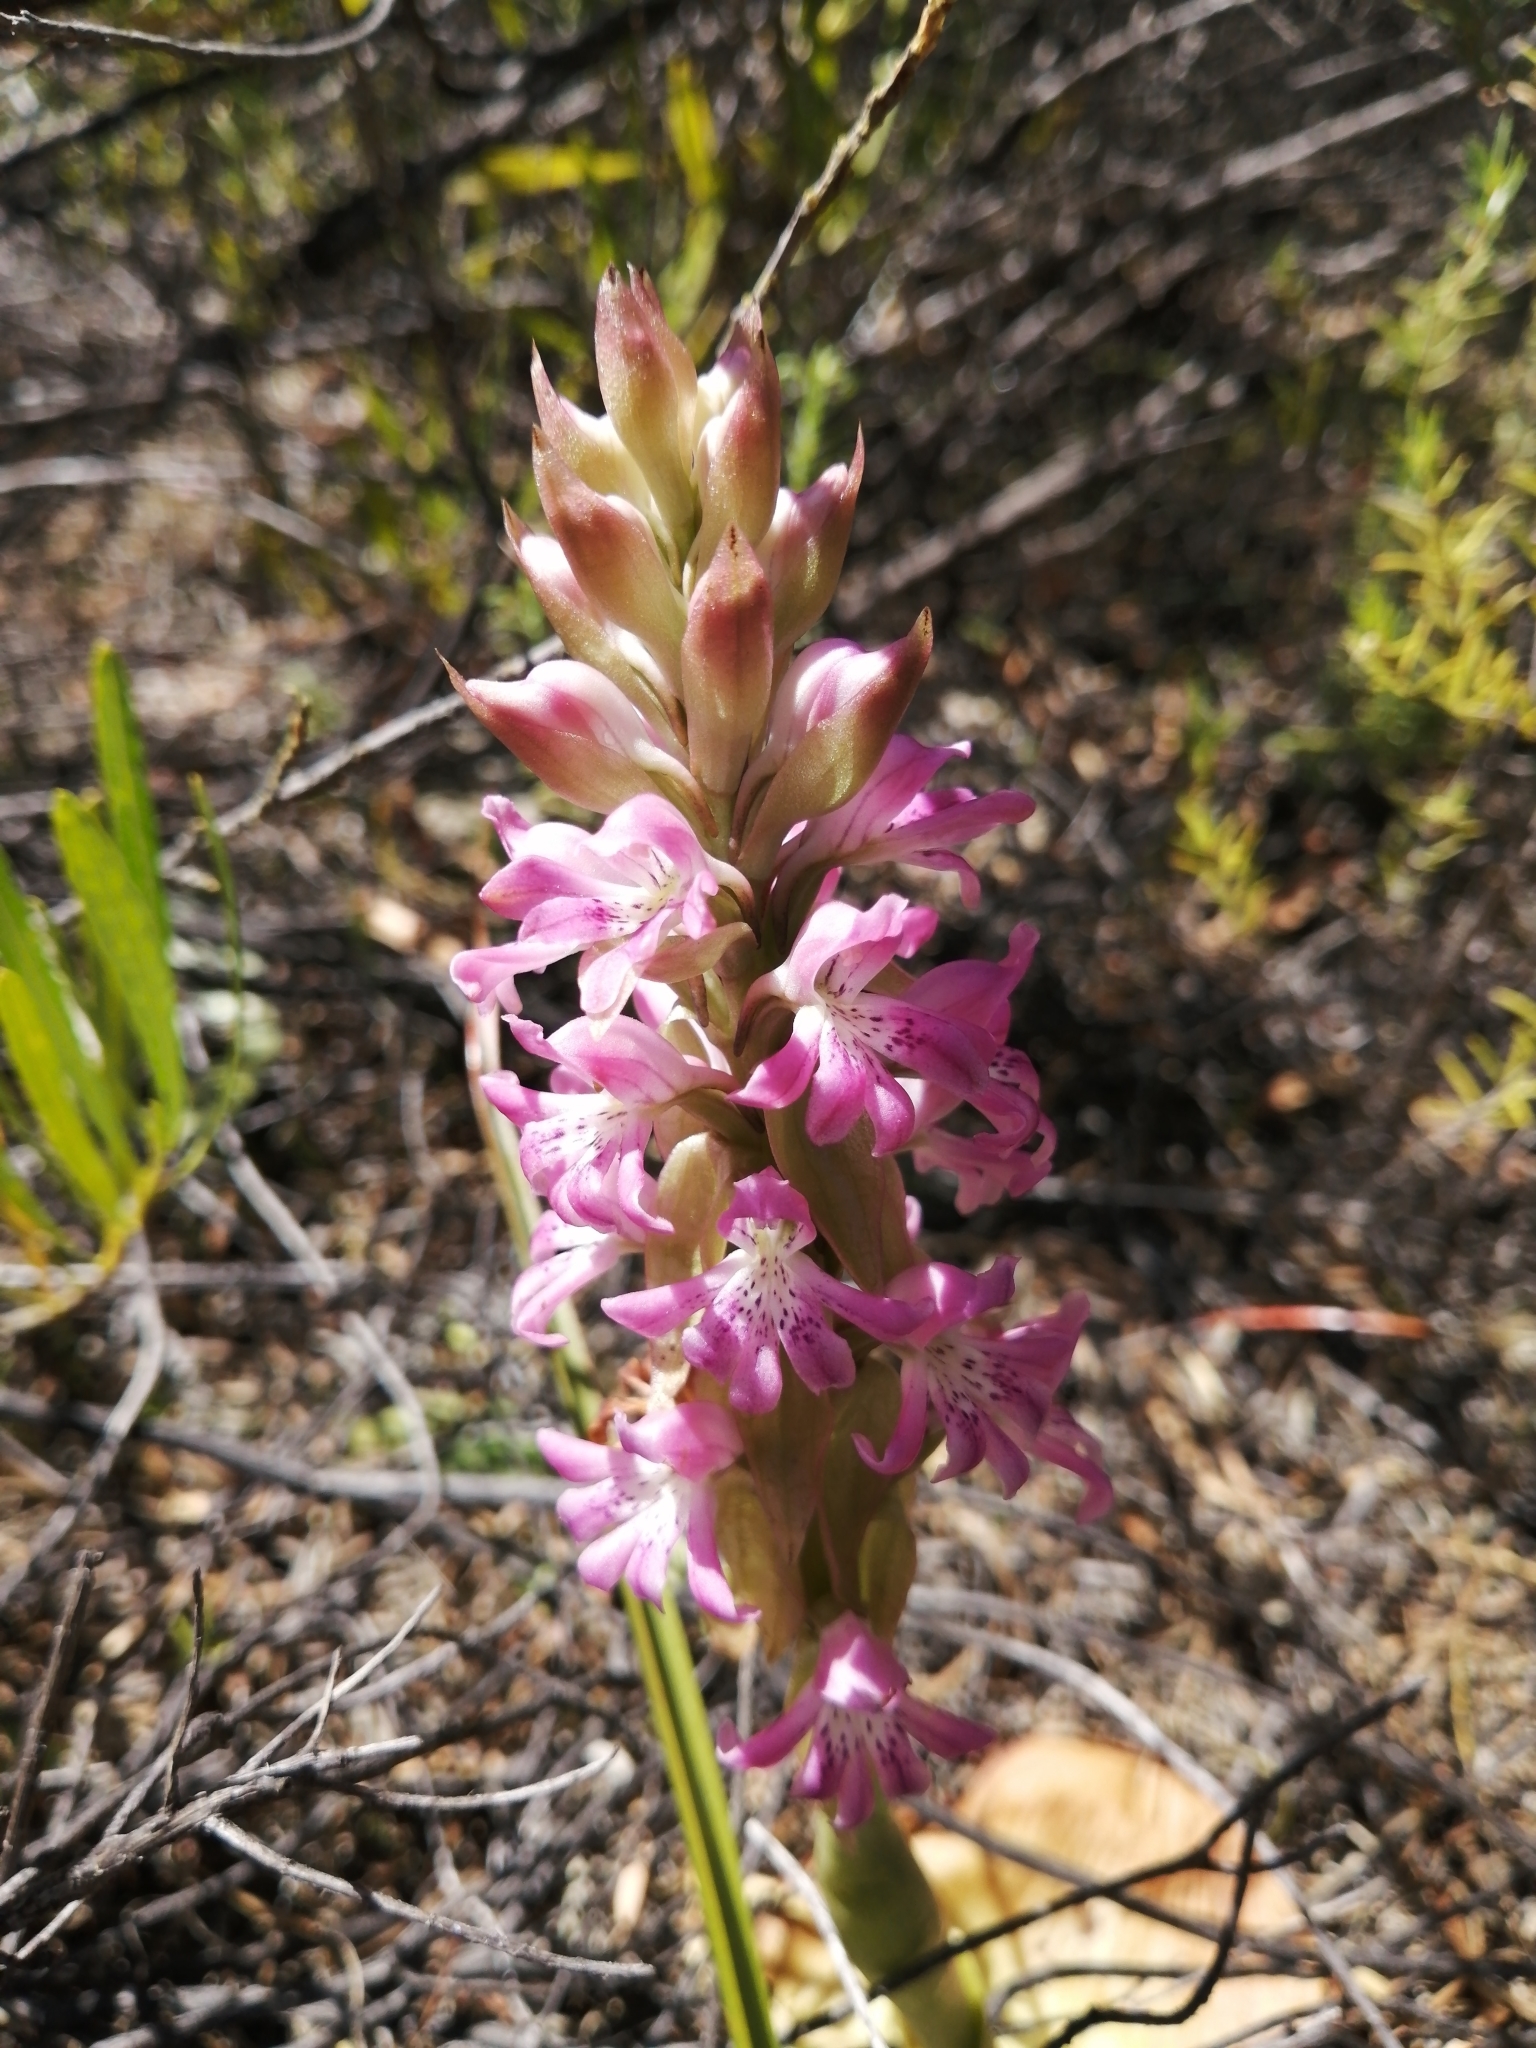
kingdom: Plantae
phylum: Tracheophyta
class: Liliopsida
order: Asparagales
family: Orchidaceae
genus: Satyrium
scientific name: Satyrium erectum
